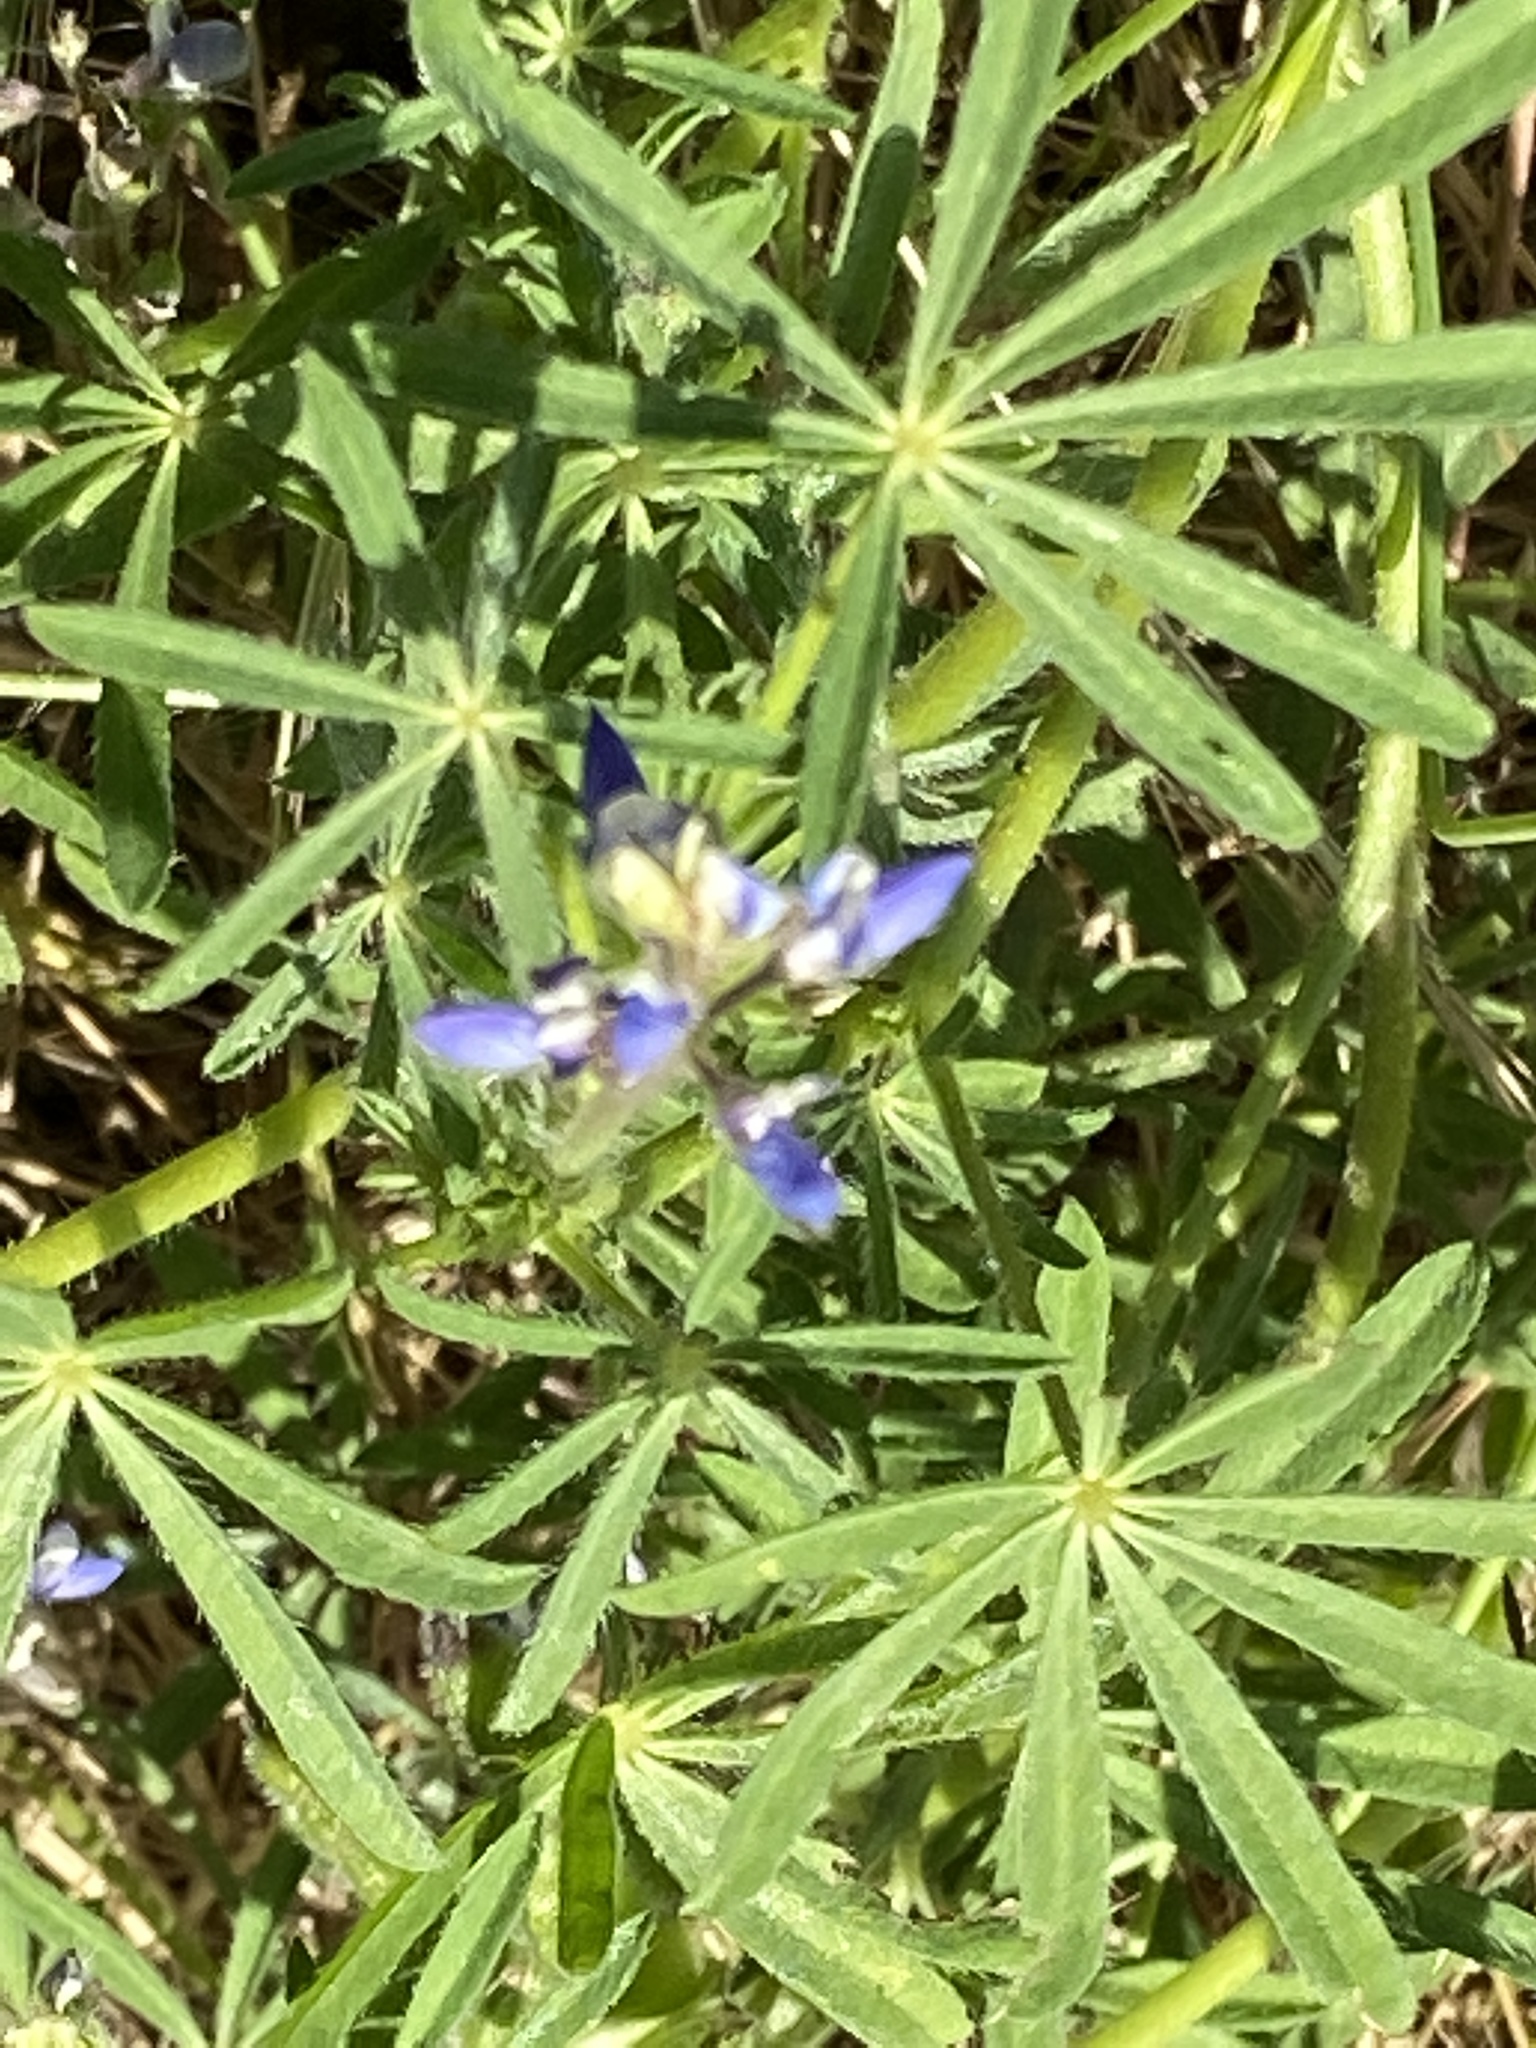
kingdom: Plantae
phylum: Tracheophyta
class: Magnoliopsida
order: Fabales
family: Fabaceae
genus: Lupinus
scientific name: Lupinus bicolor
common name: Miniature lupine
